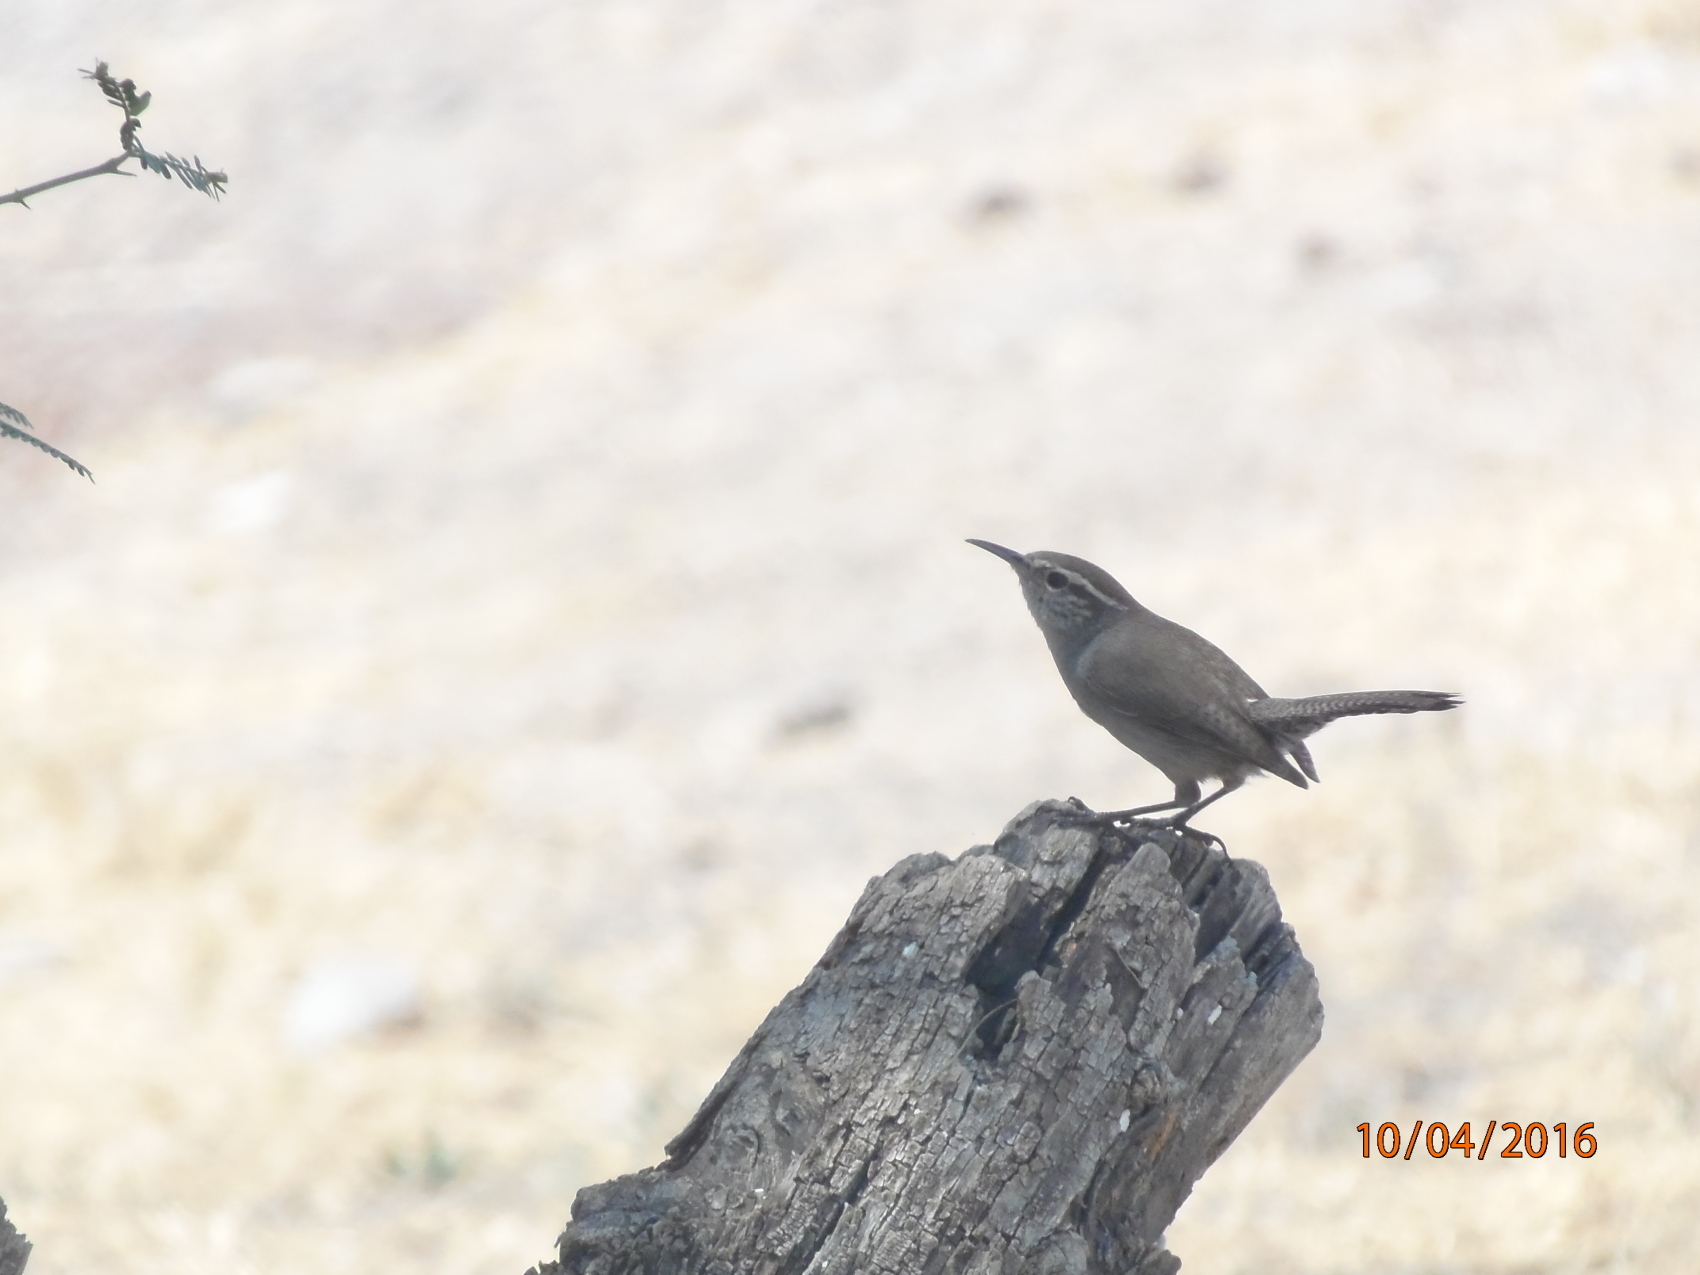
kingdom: Animalia
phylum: Chordata
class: Aves
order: Passeriformes
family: Troglodytidae
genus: Thryomanes
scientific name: Thryomanes bewickii
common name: Bewick's wren
